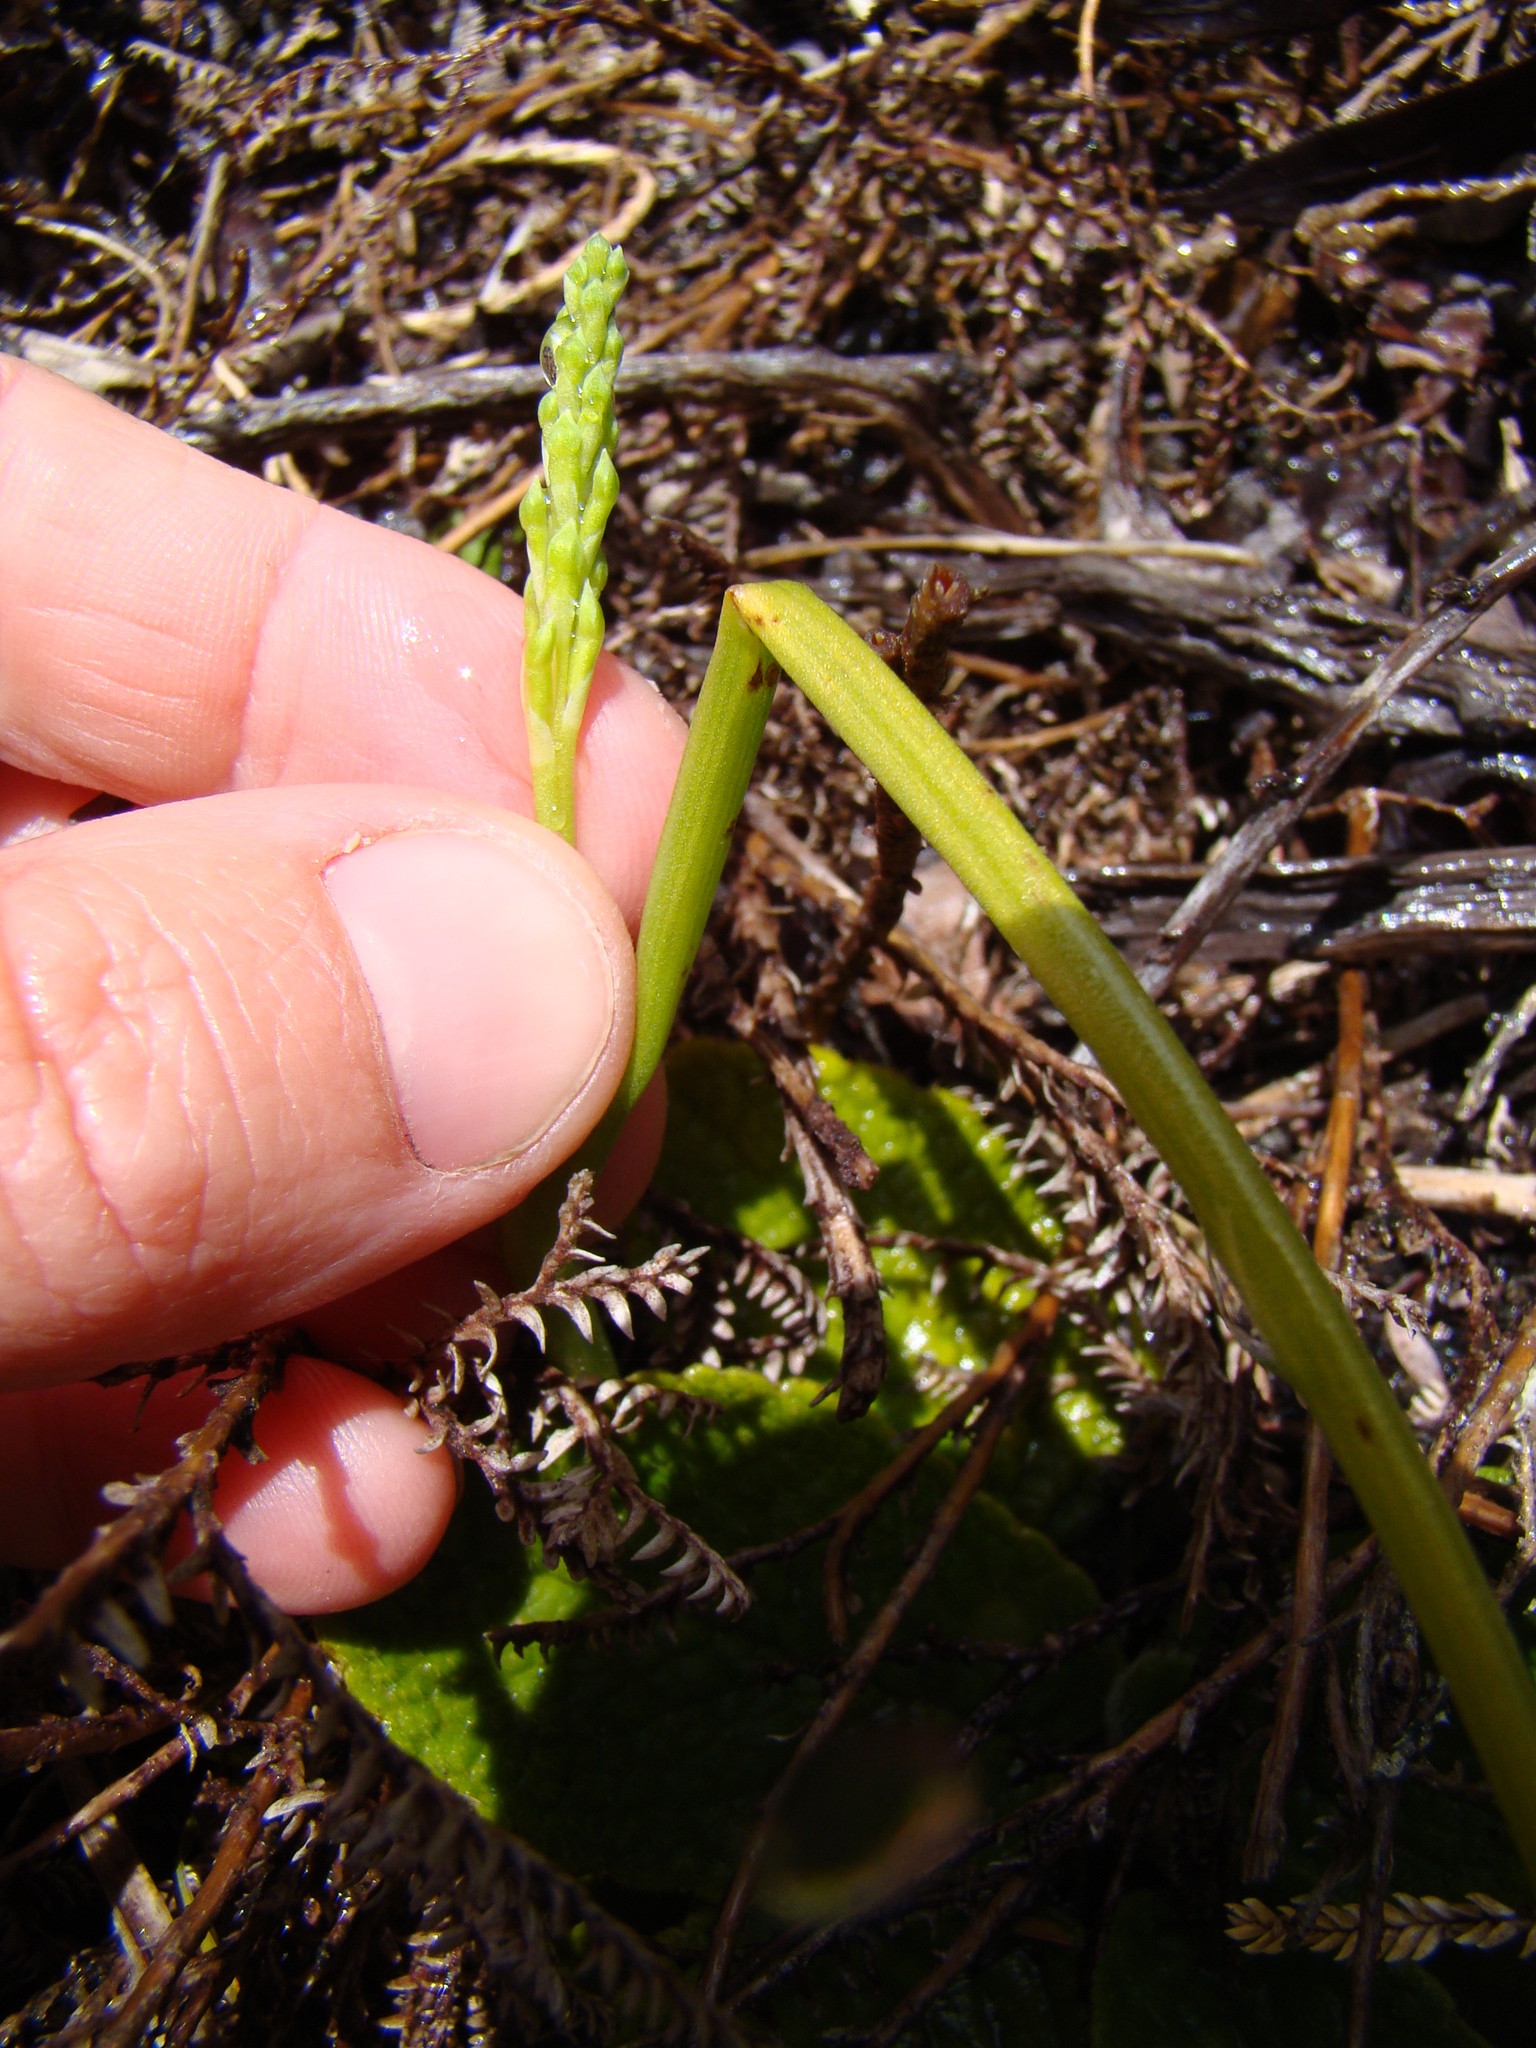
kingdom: Plantae
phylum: Tracheophyta
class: Liliopsida
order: Asparagales
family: Orchidaceae
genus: Microtis
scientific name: Microtis
